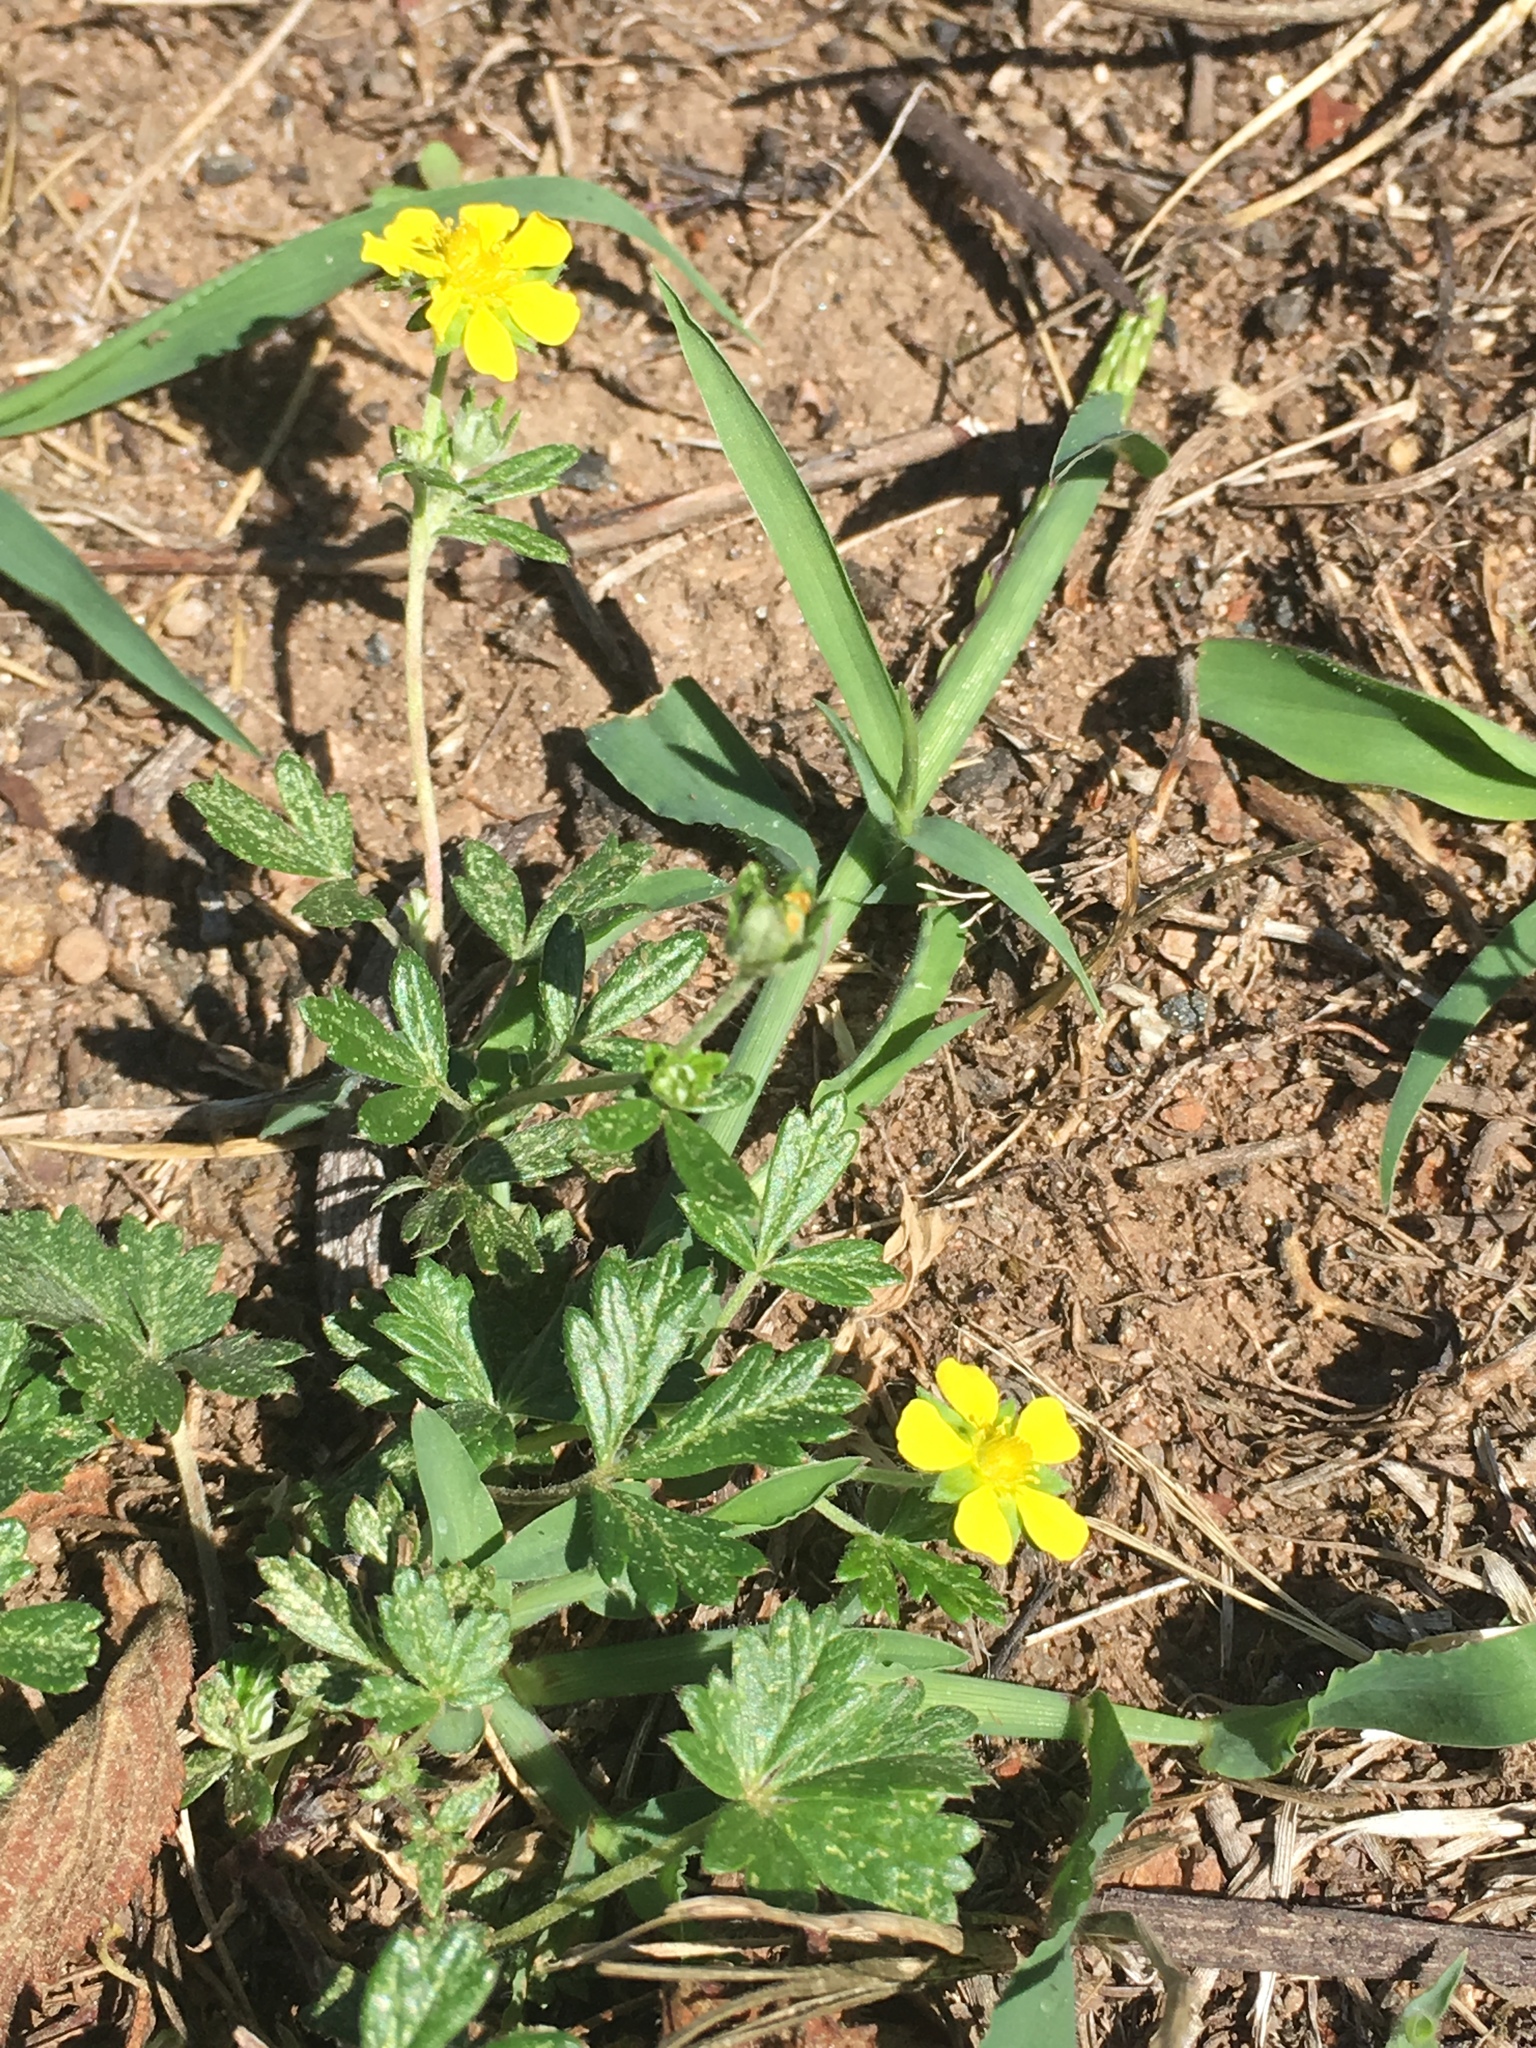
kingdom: Plantae
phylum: Tracheophyta
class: Magnoliopsida
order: Rosales
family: Rosaceae
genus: Potentilla
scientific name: Potentilla argentea
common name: Hoary cinquefoil
